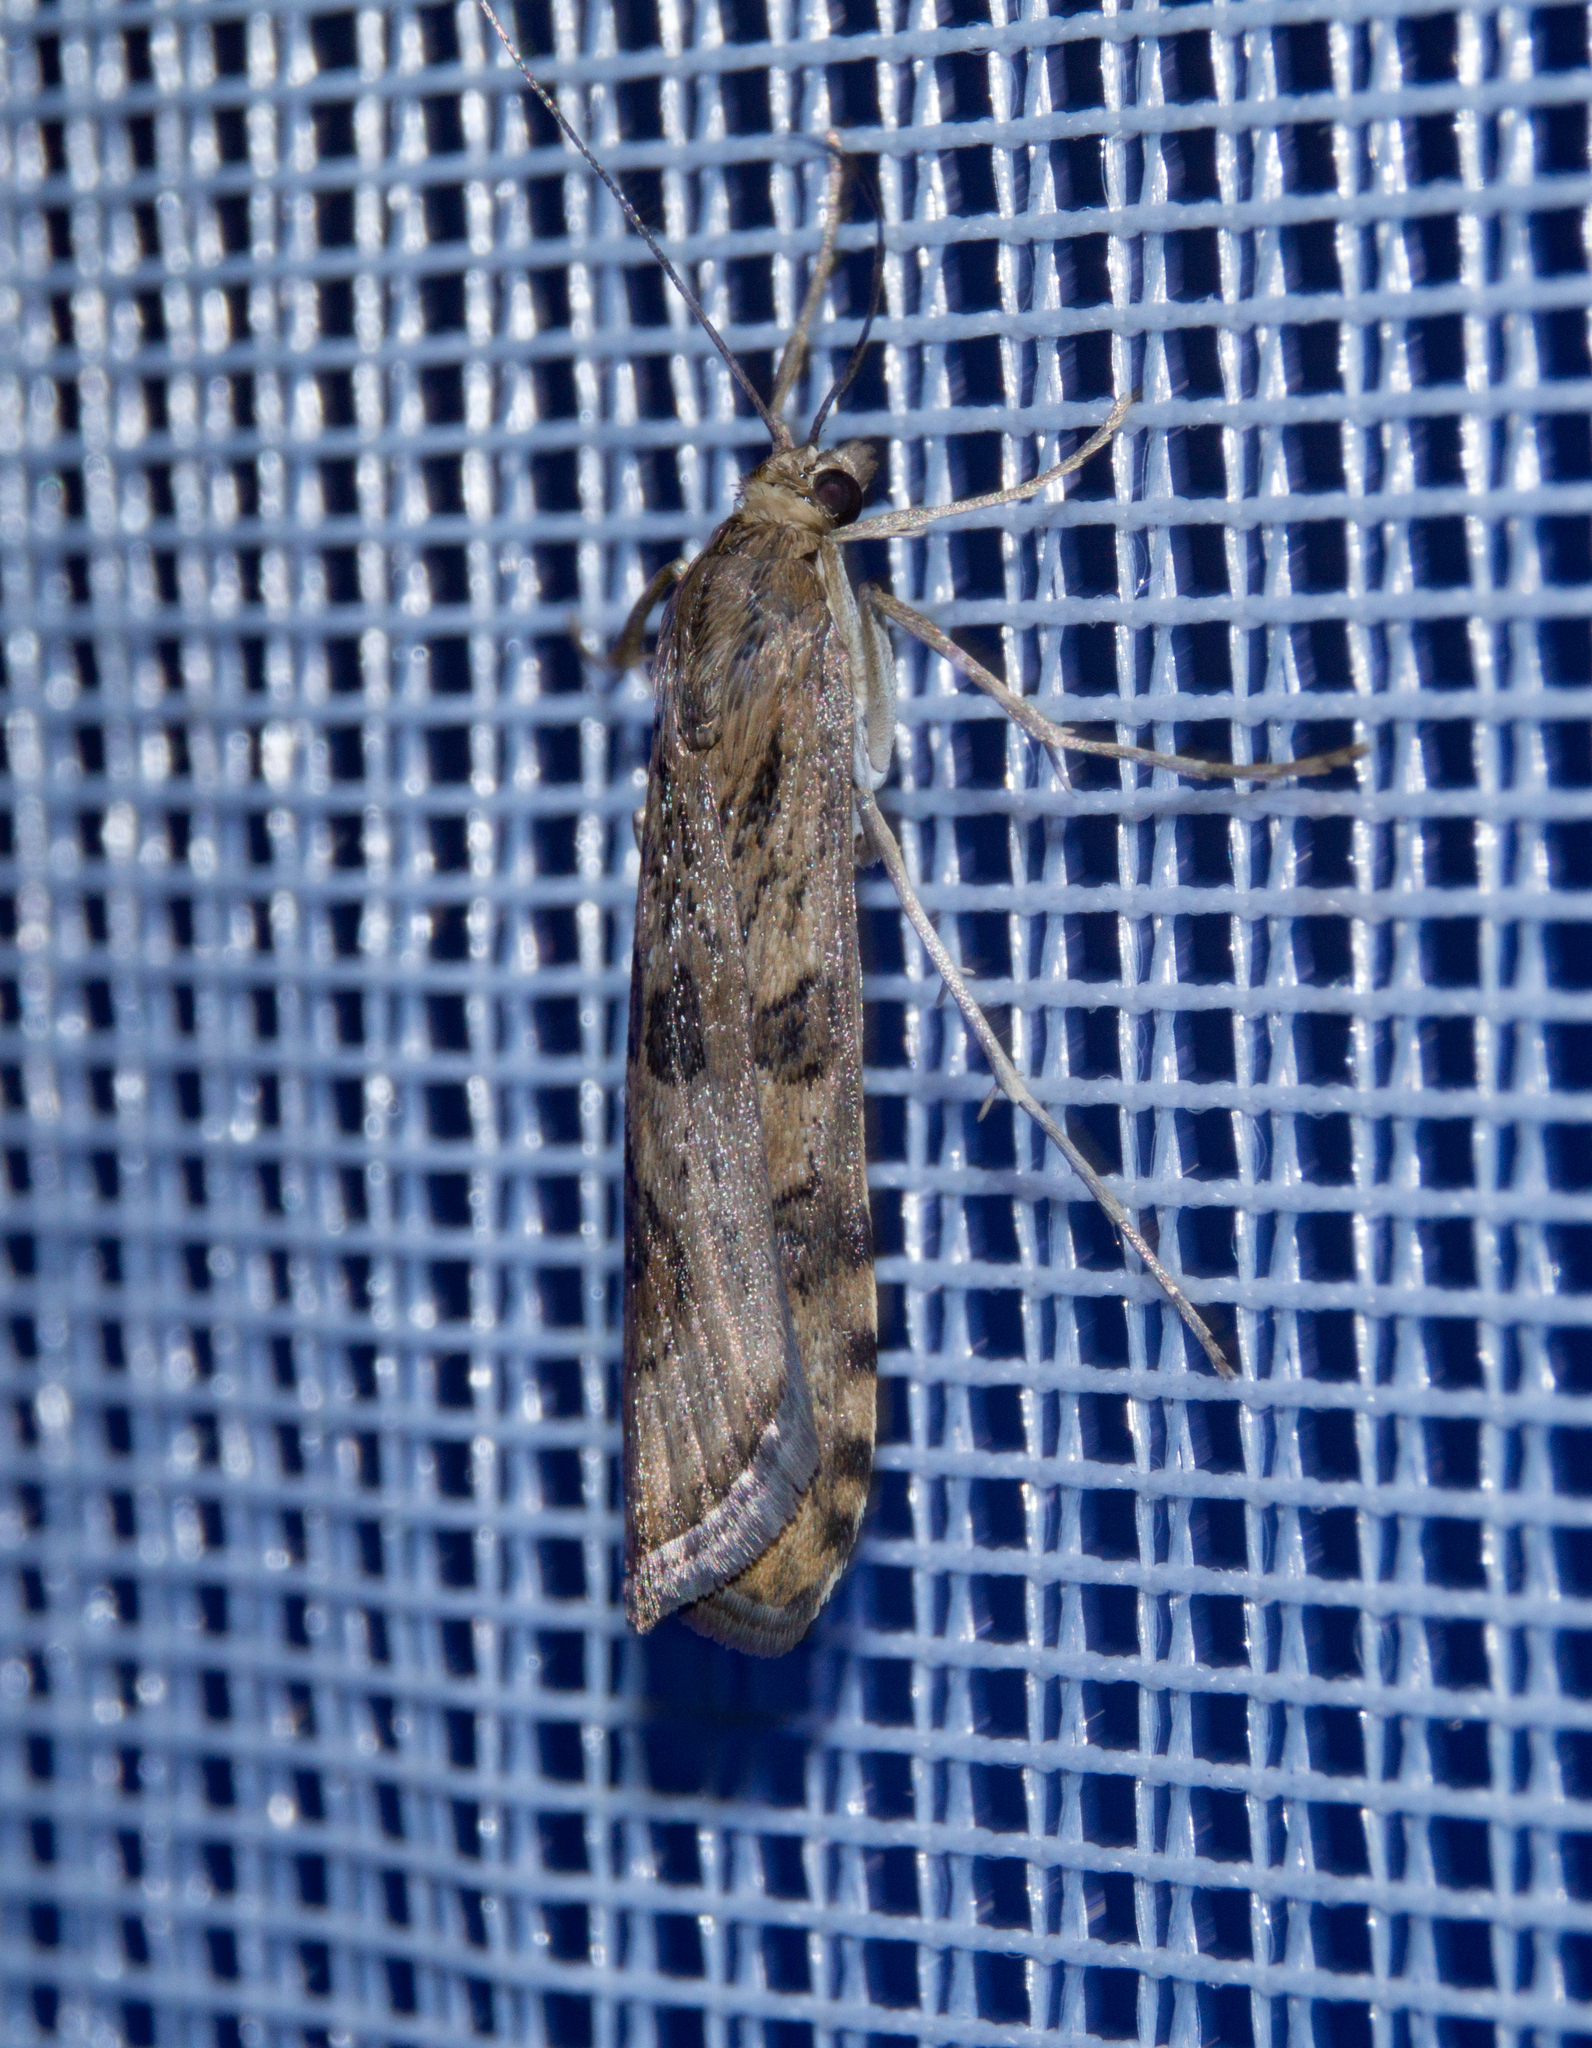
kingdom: Animalia
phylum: Arthropoda
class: Insecta
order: Lepidoptera
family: Crambidae
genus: Nomophila
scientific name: Nomophila noctuella
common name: Rush veneer
